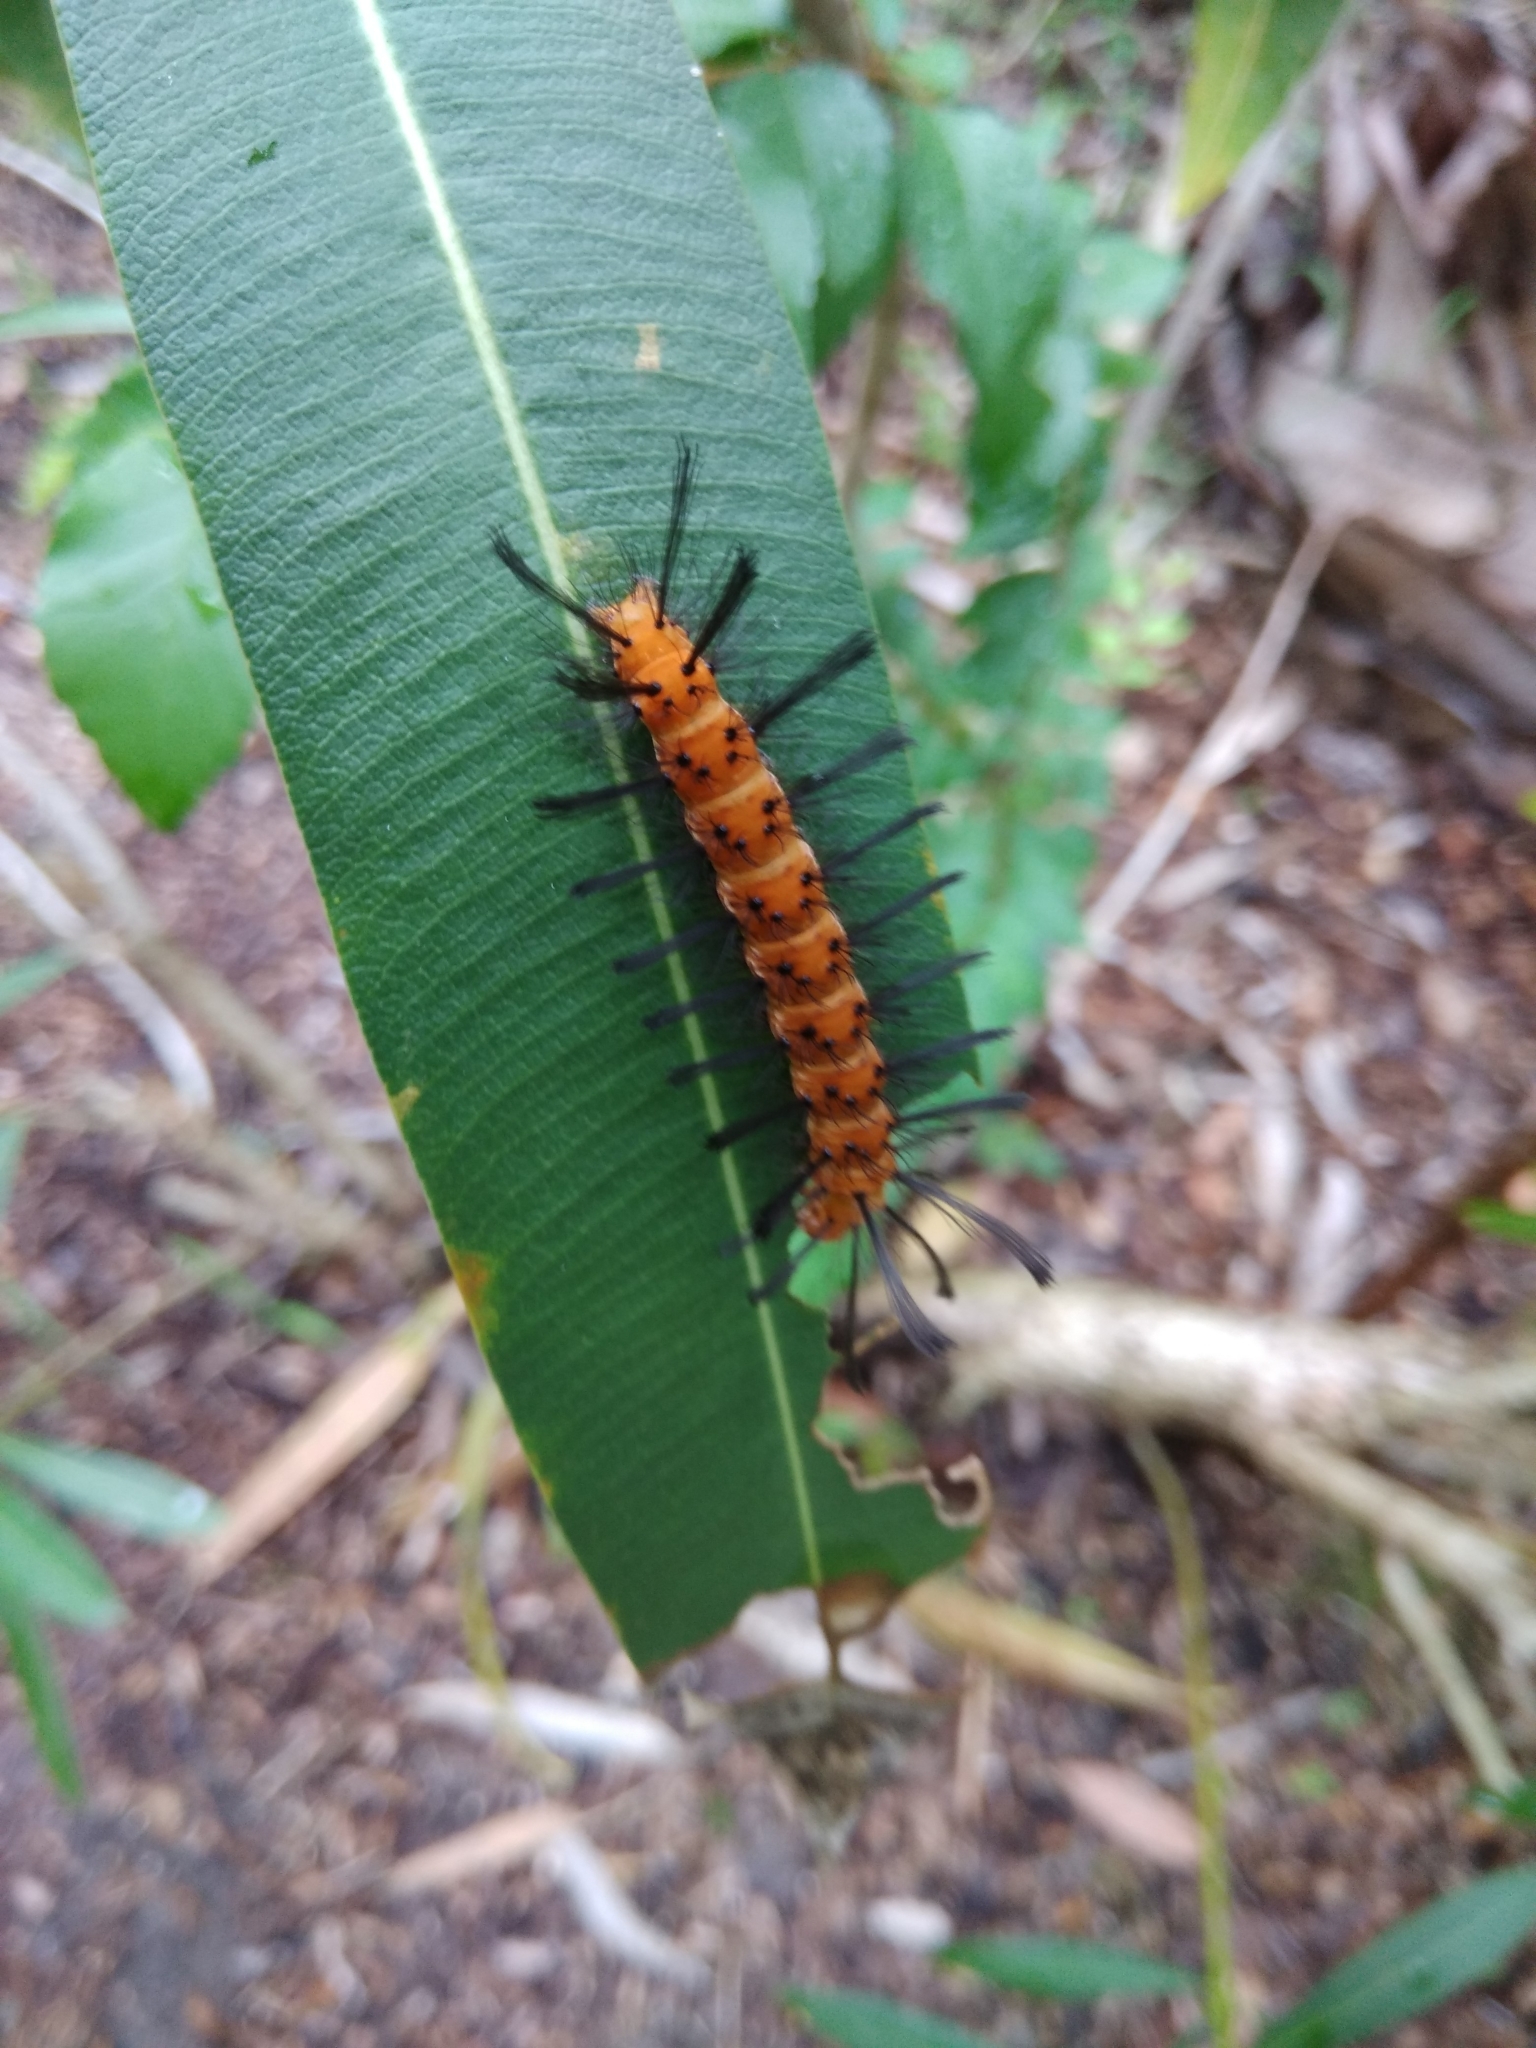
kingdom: Animalia
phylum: Arthropoda
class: Insecta
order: Lepidoptera
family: Erebidae
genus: Syntomeida
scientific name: Syntomeida epilais
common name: Polka-dot wasp moth
